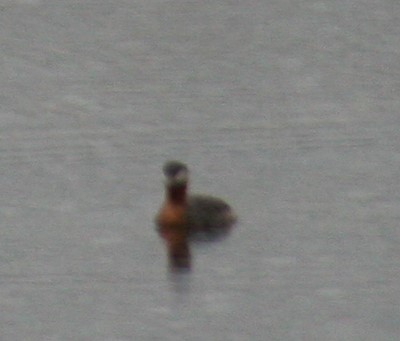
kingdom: Animalia
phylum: Chordata
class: Aves
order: Podicipediformes
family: Podicipedidae
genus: Podiceps
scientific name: Podiceps grisegena
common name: Red-necked grebe
